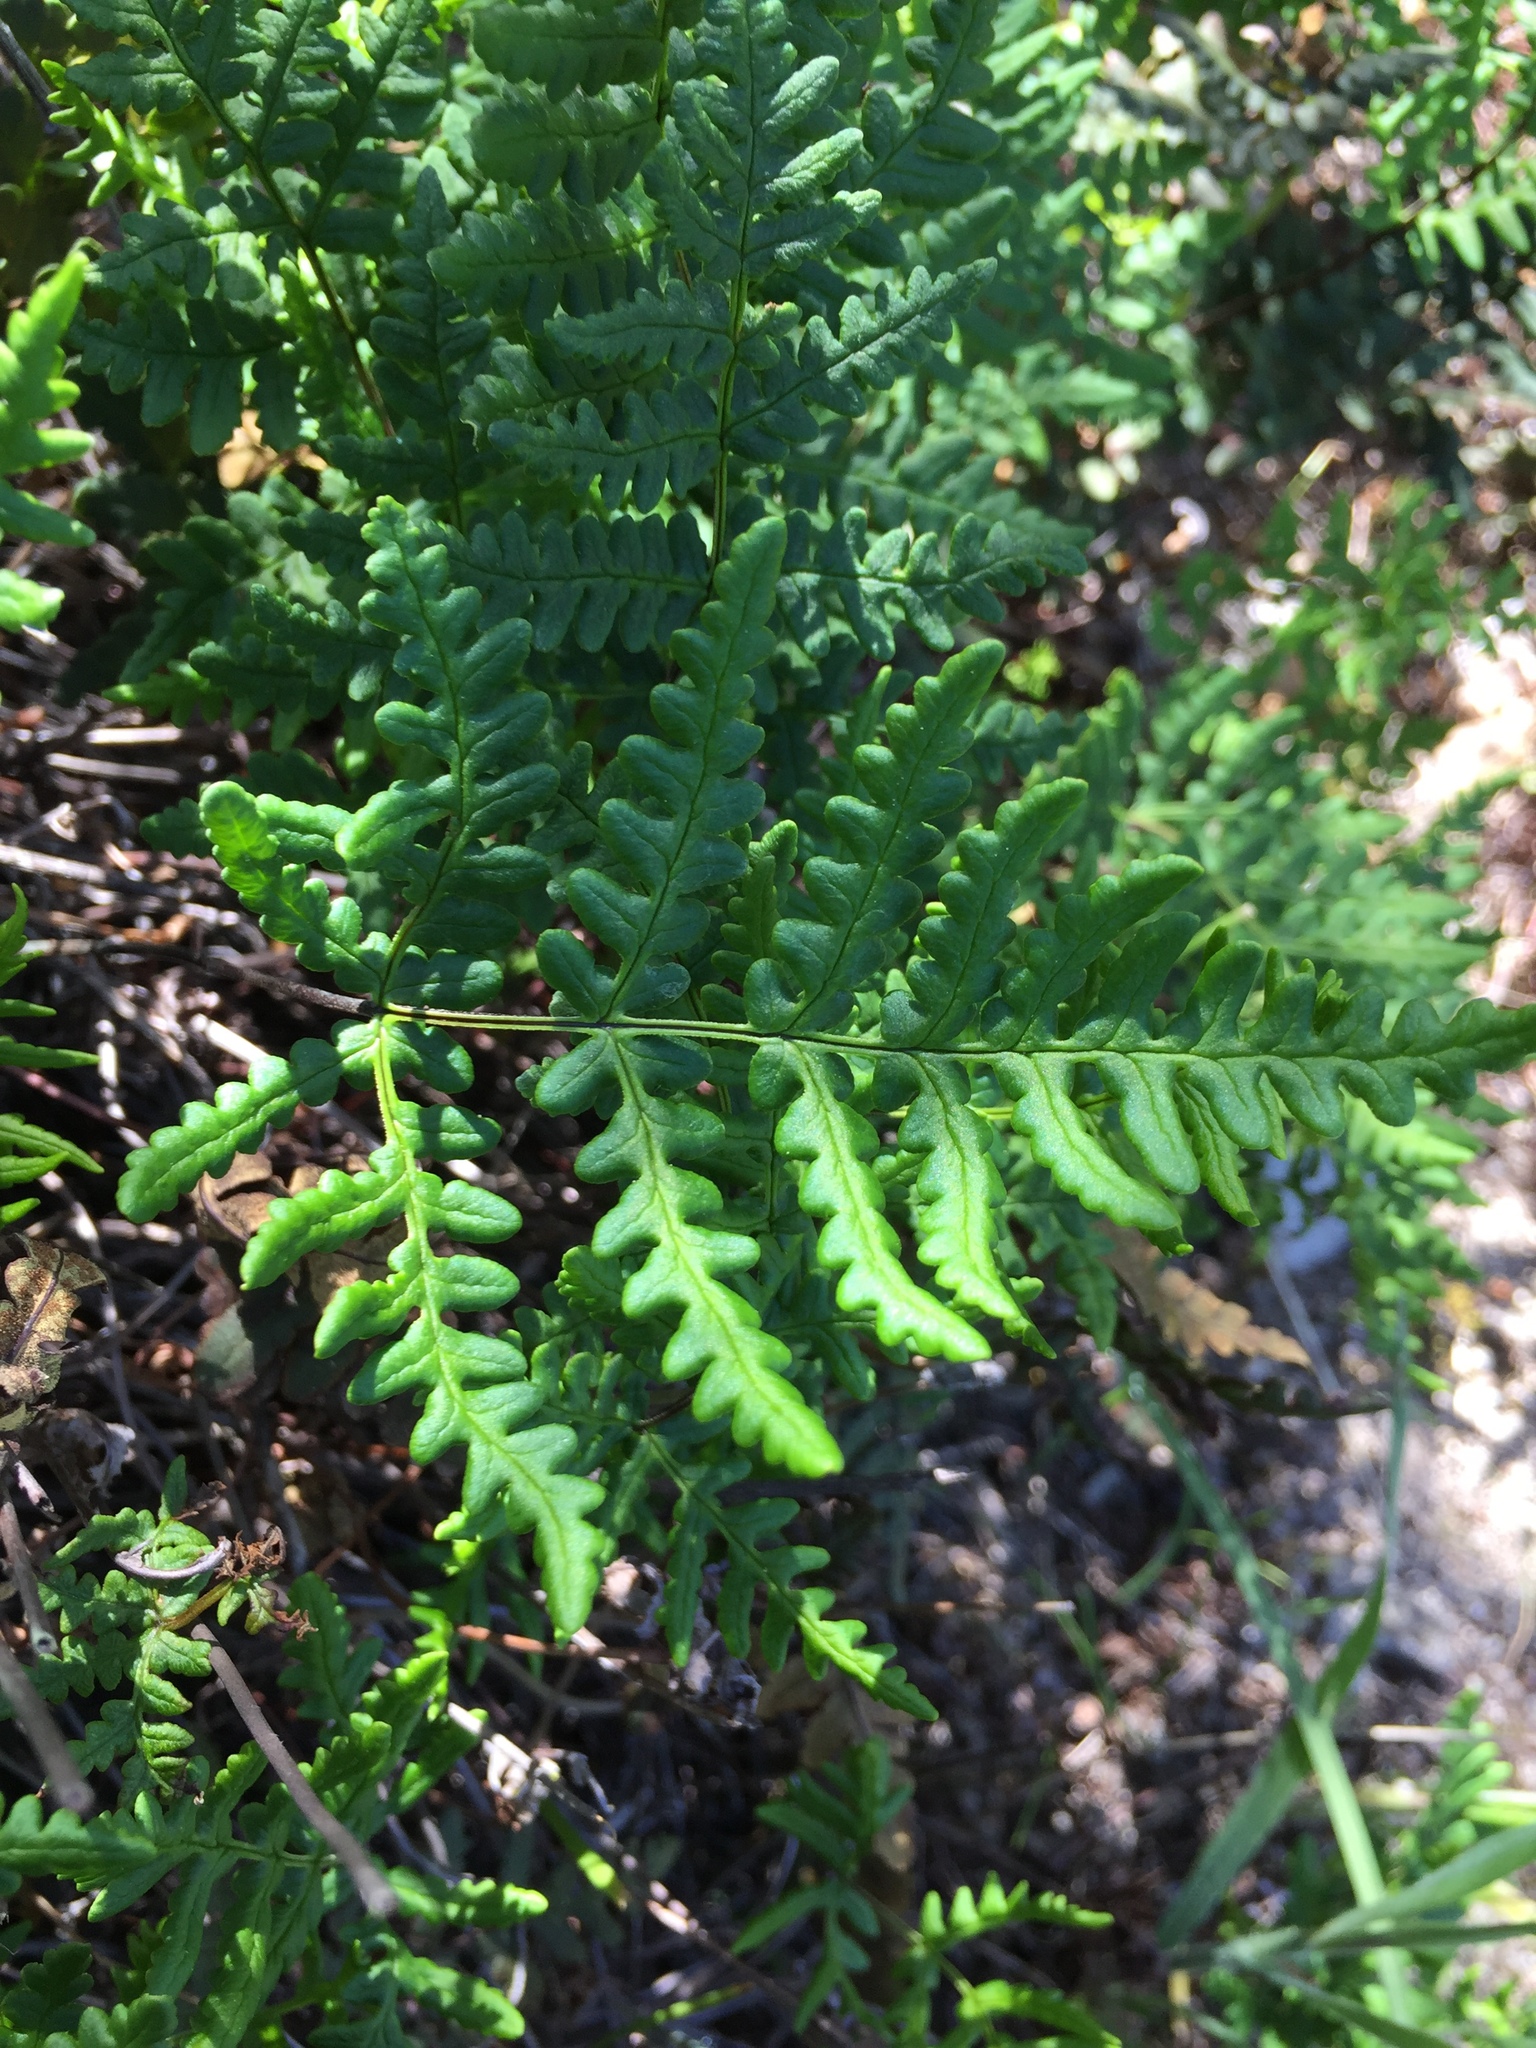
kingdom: Plantae
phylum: Tracheophyta
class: Polypodiopsida
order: Polypodiales
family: Pteridaceae
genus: Pentagramma
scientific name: Pentagramma triangularis
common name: Gold fern
